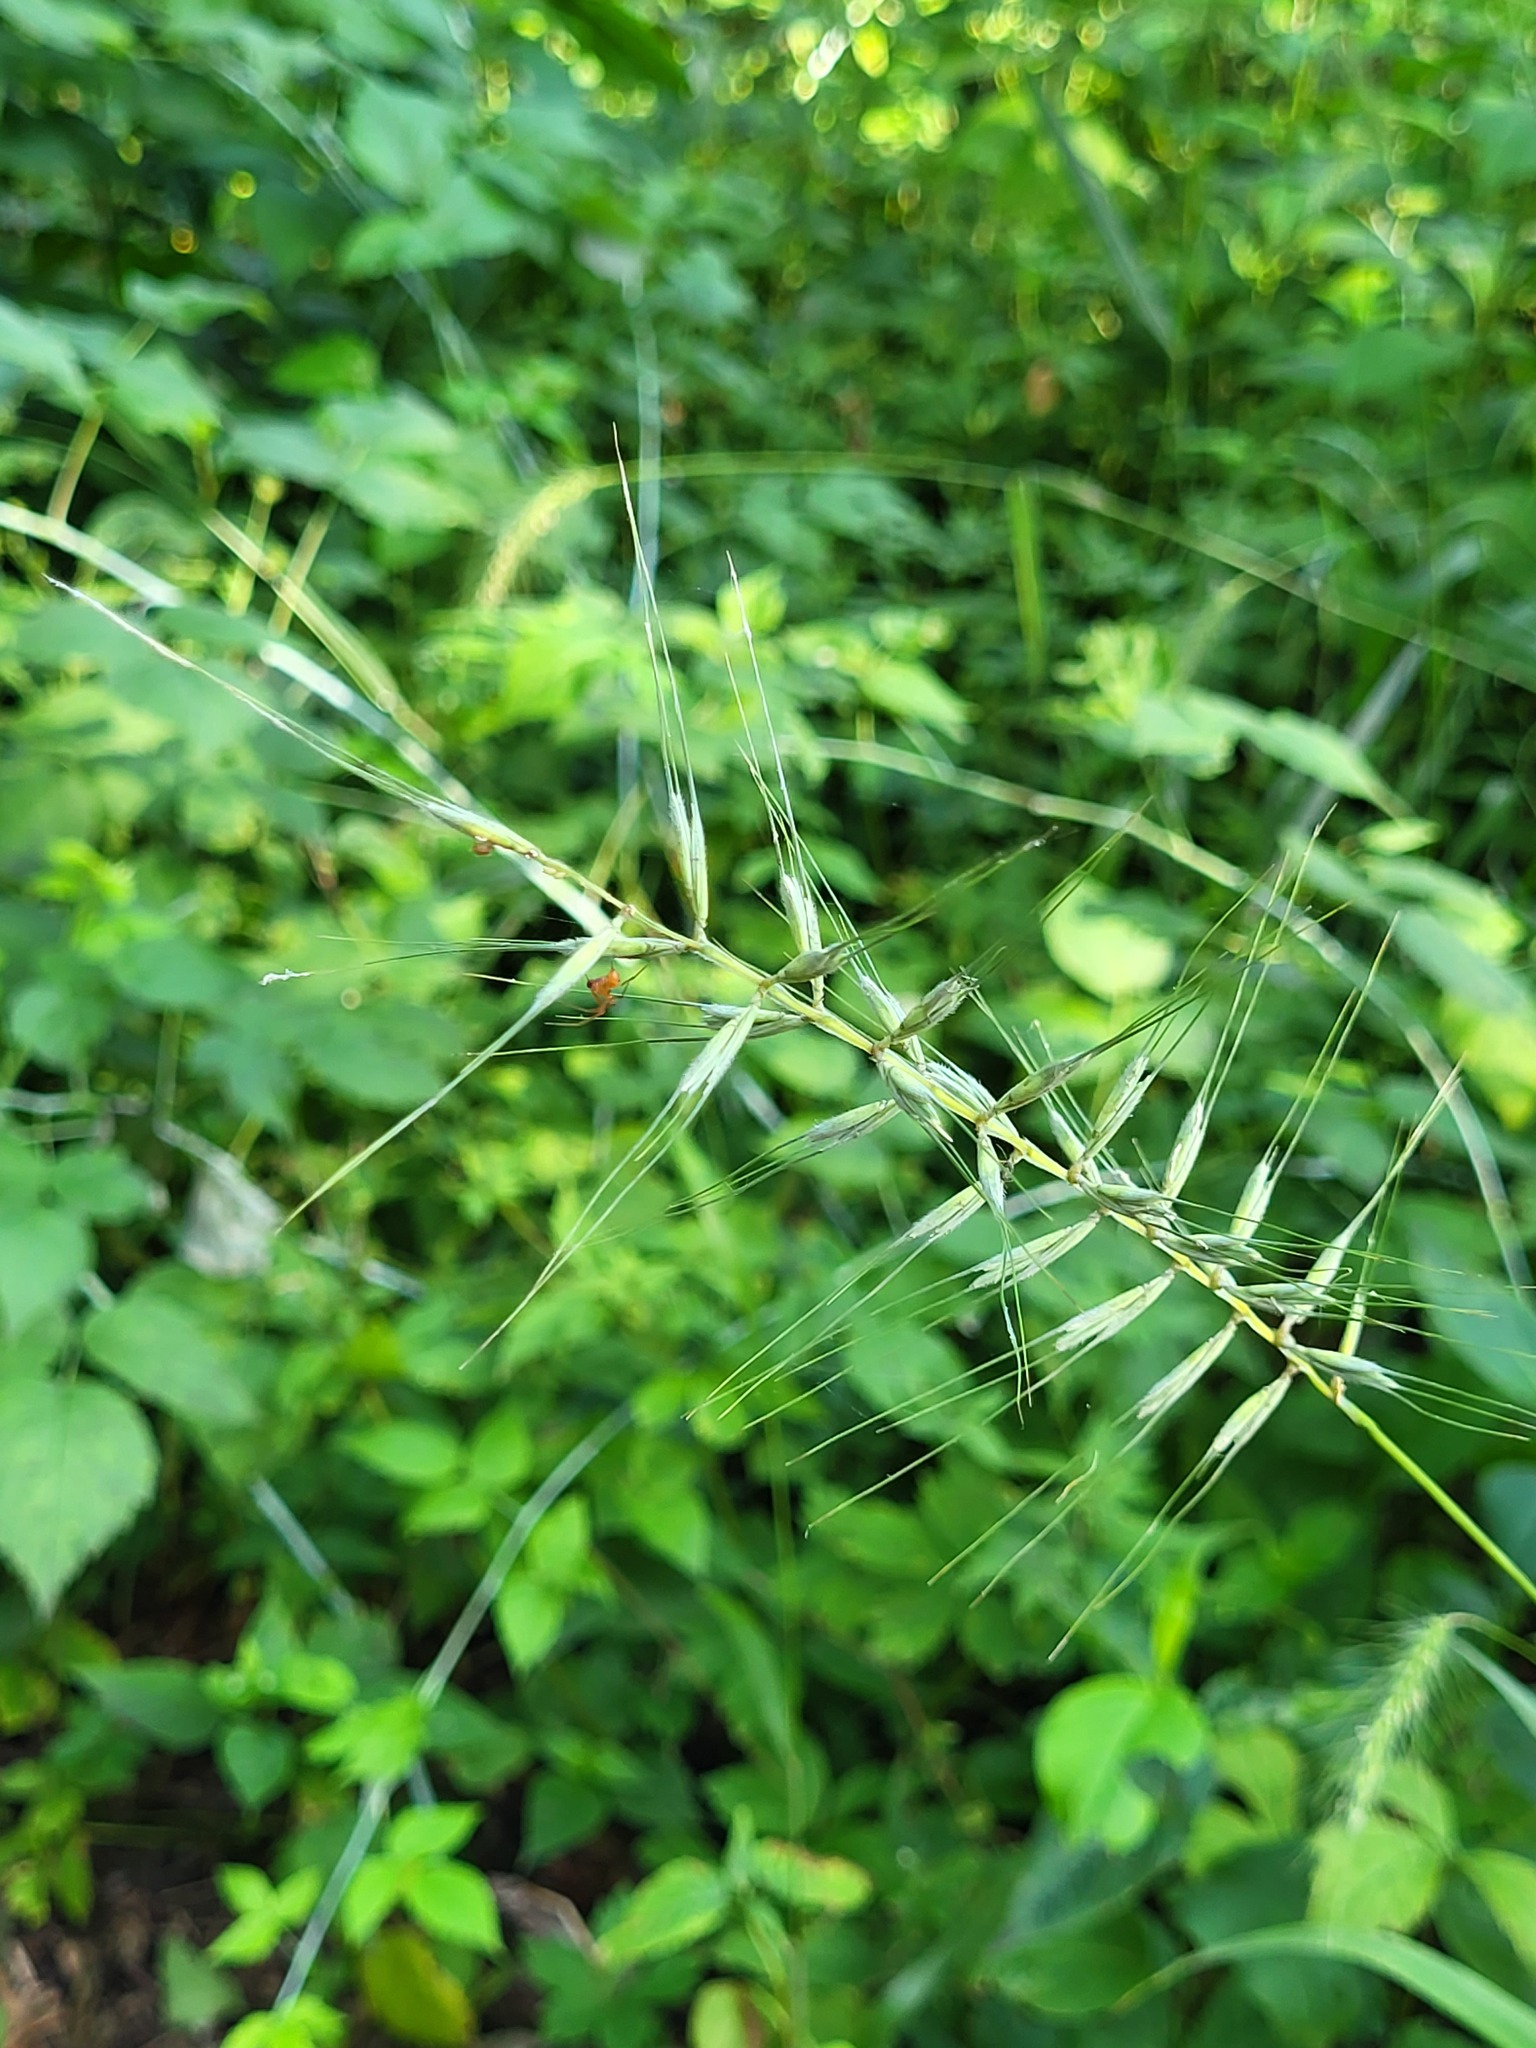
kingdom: Plantae
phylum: Tracheophyta
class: Liliopsida
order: Poales
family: Poaceae
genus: Elymus
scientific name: Elymus hystrix
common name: Bottlebrush grass
